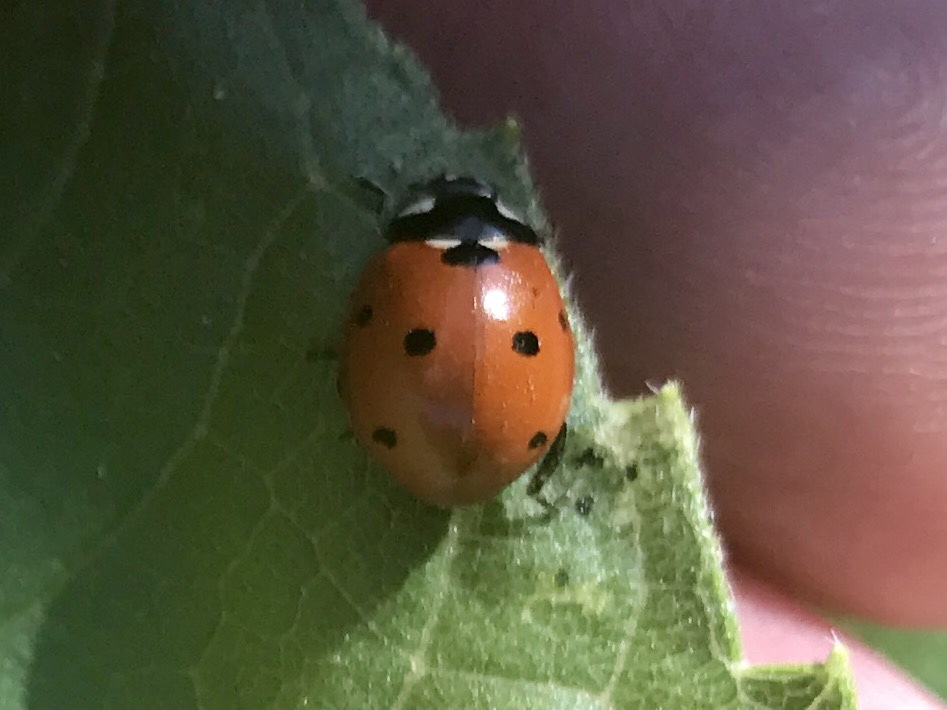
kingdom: Animalia
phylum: Arthropoda
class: Insecta
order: Coleoptera
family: Coccinellidae
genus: Coccinella
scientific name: Coccinella septempunctata
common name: Sevenspotted lady beetle
